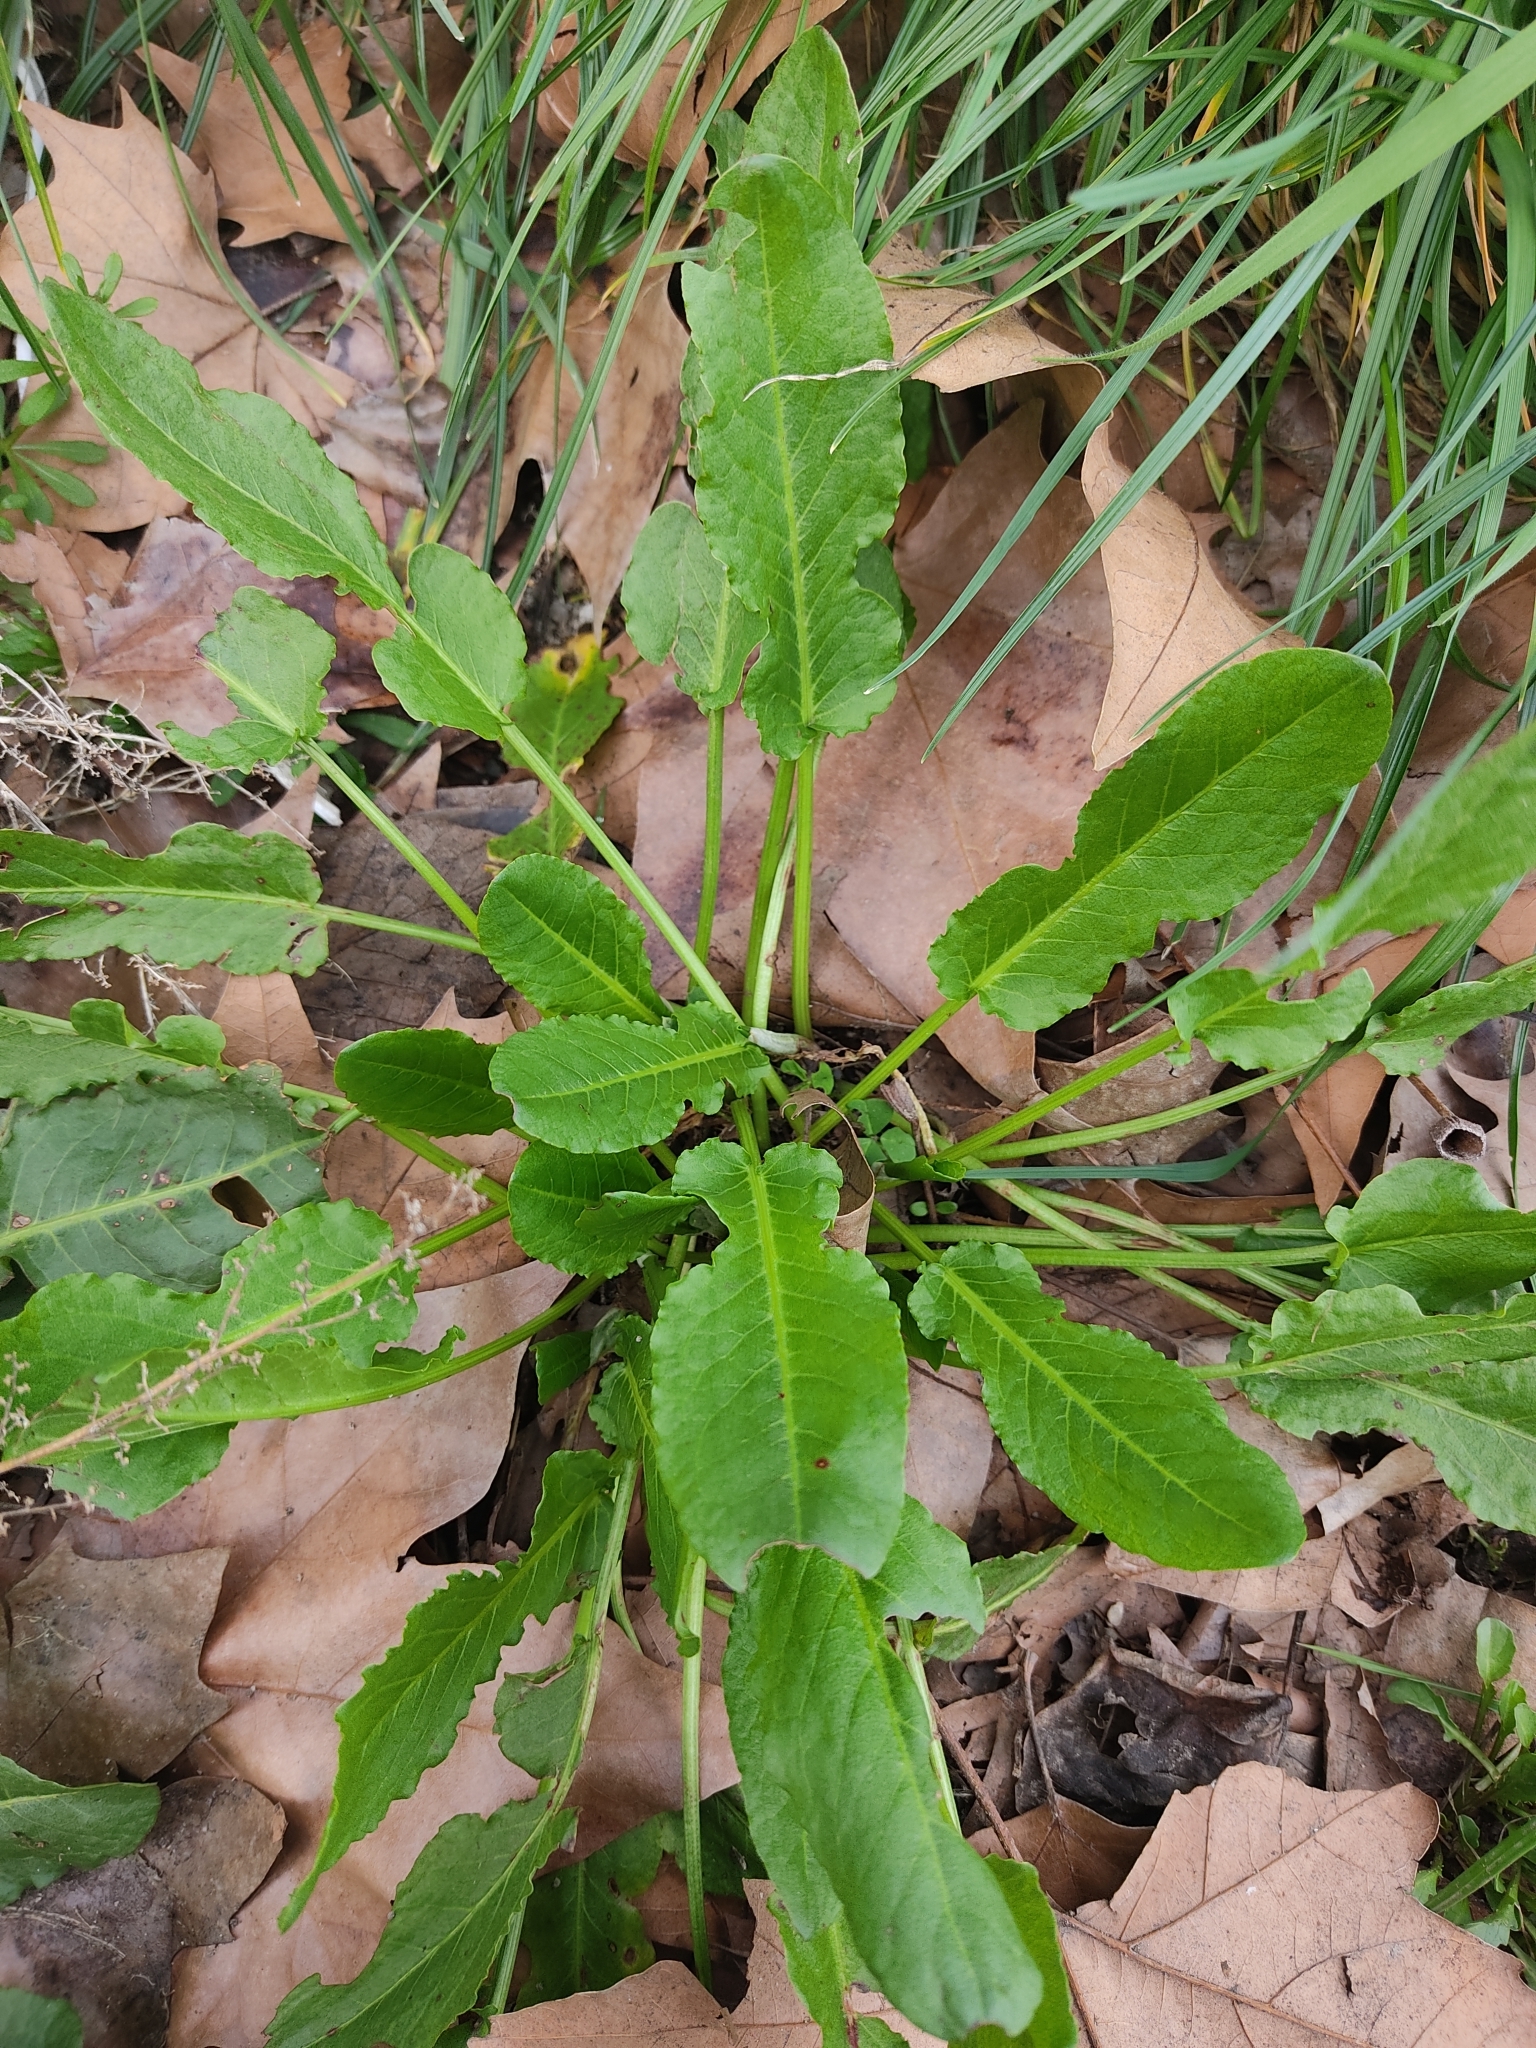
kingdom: Plantae
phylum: Tracheophyta
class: Magnoliopsida
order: Caryophyllales
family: Polygonaceae
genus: Rumex
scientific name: Rumex pulcher
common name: Fiddle dock
